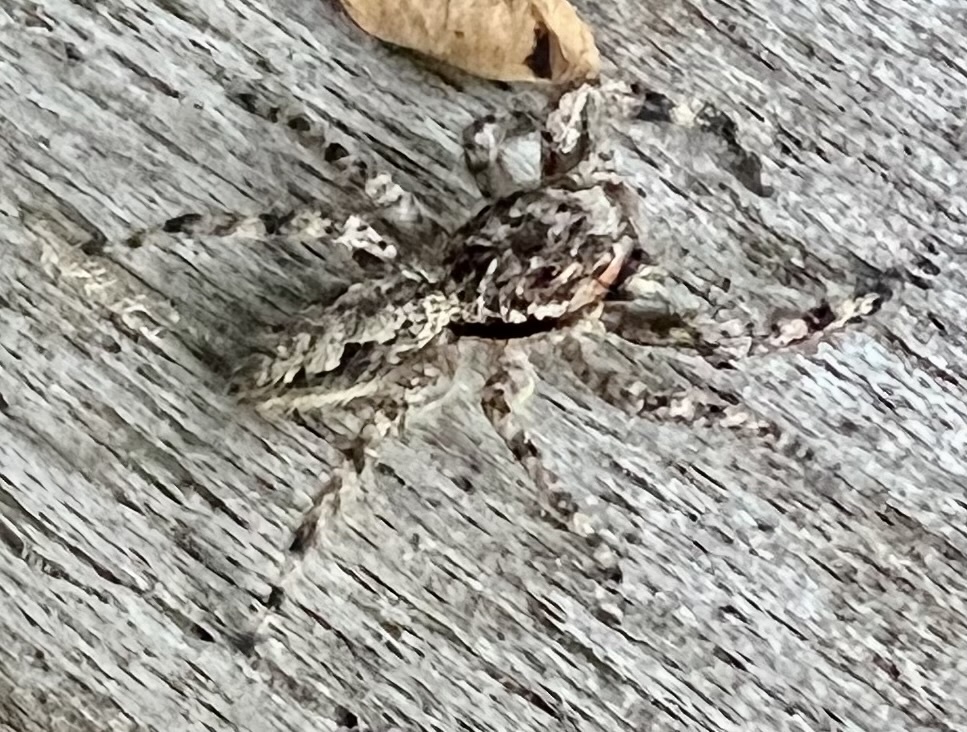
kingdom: Animalia
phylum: Arthropoda
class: Arachnida
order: Araneae
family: Salticidae
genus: Platycryptus
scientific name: Platycryptus undatus
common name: Tan jumping spider
